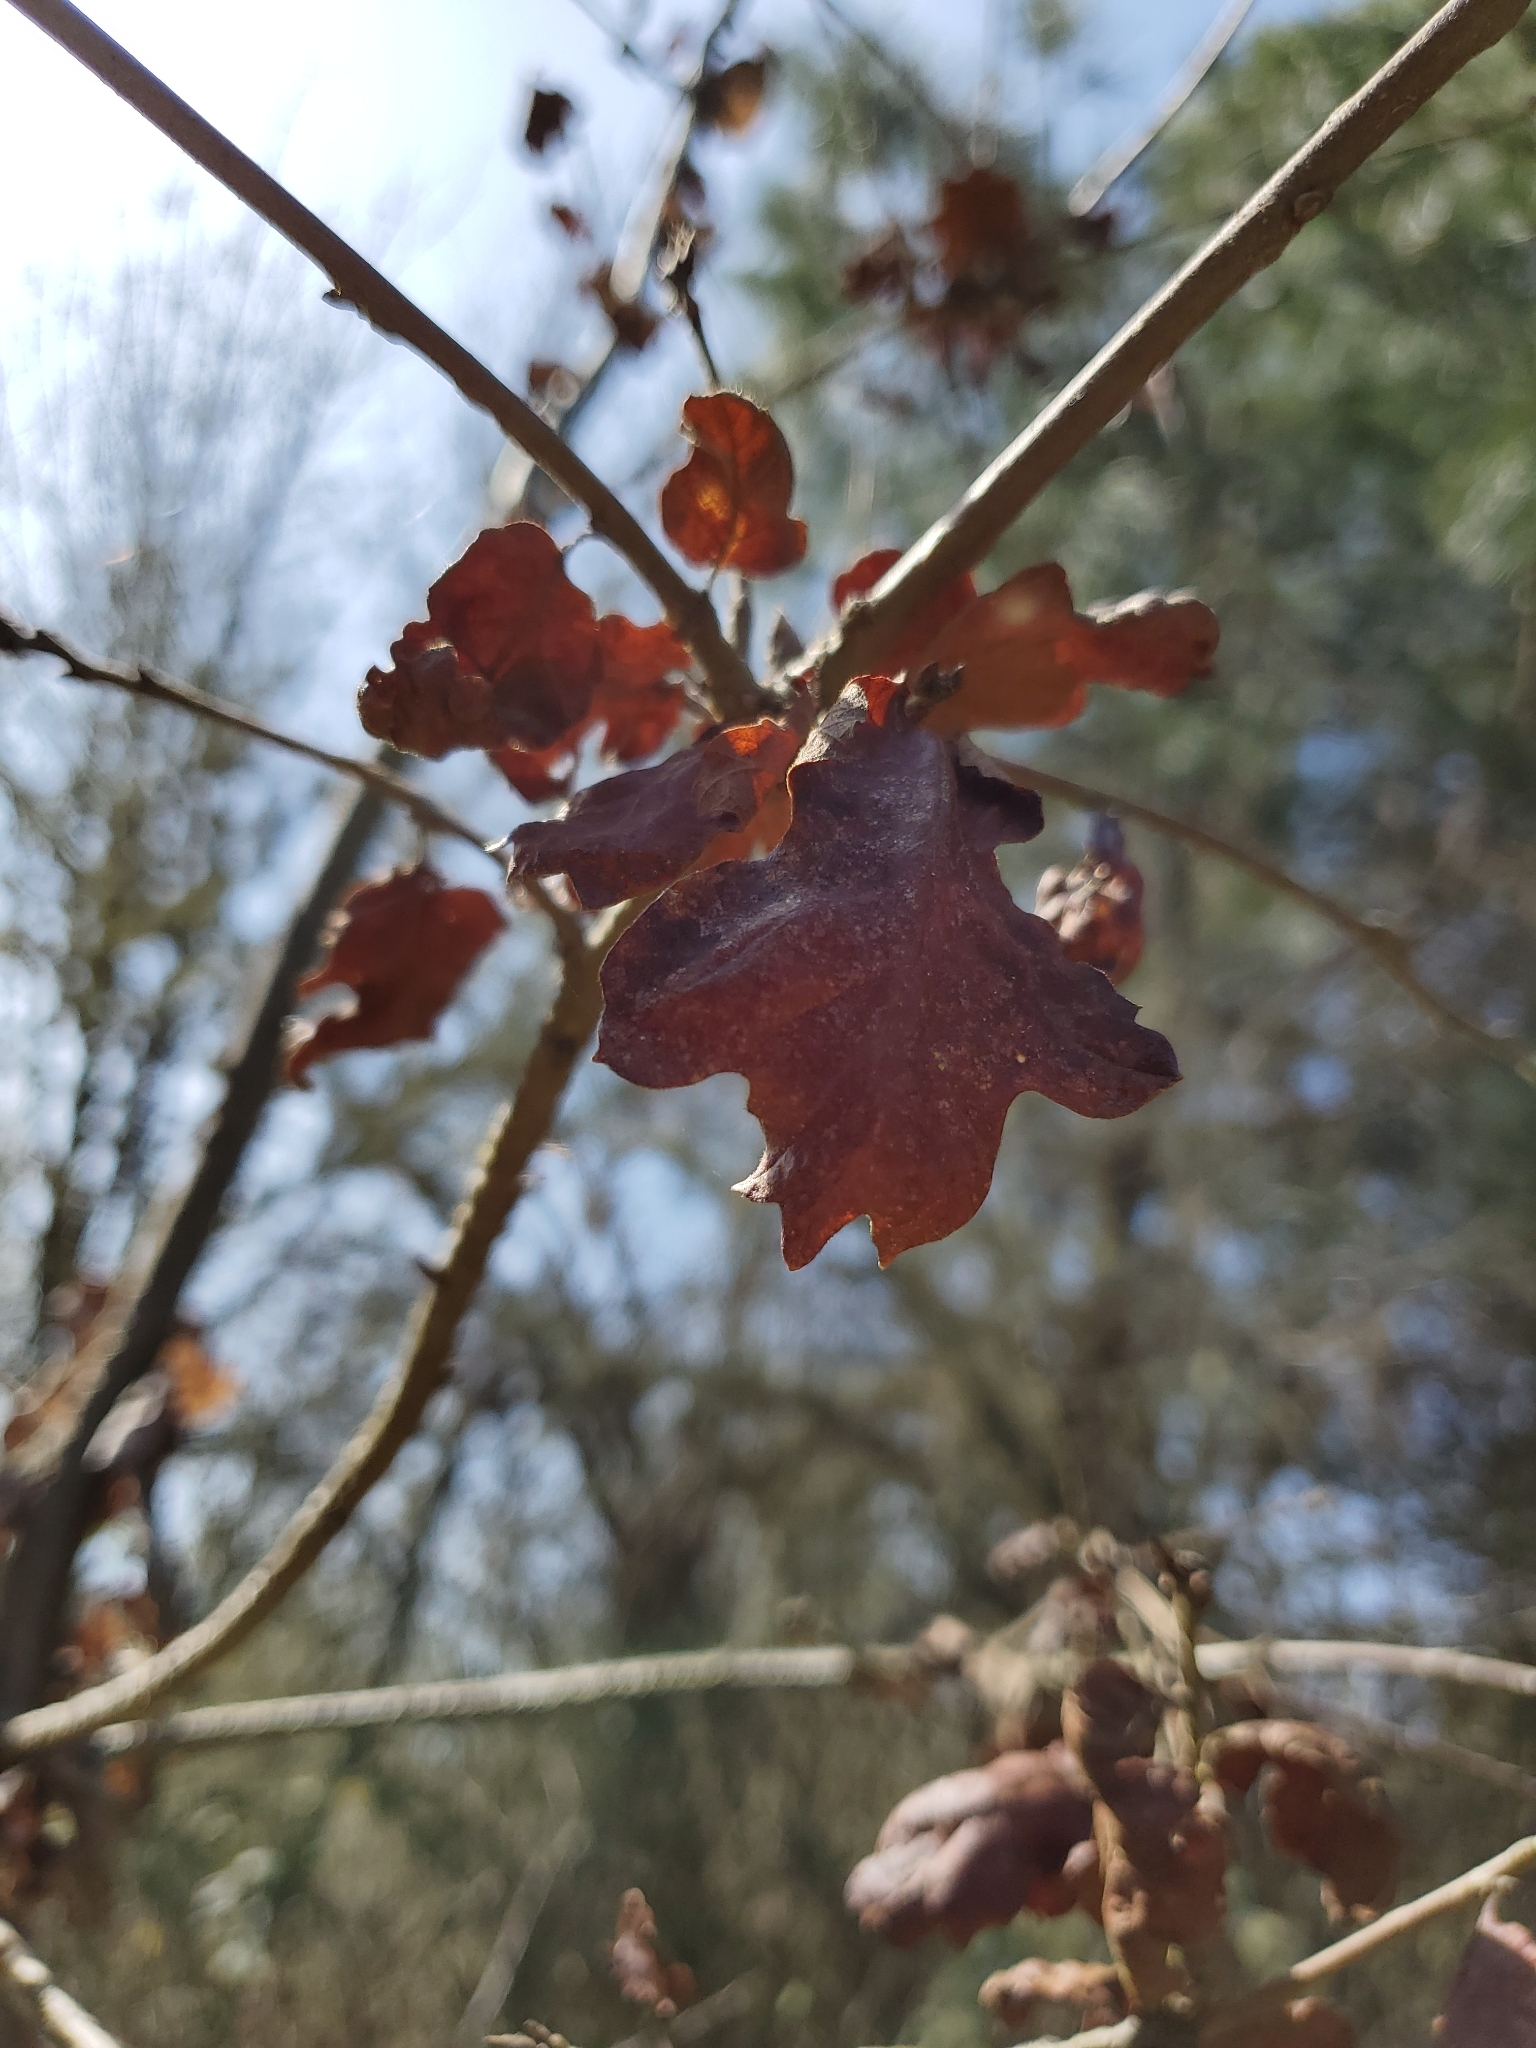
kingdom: Plantae
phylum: Tracheophyta
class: Magnoliopsida
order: Fagales
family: Fagaceae
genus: Quercus
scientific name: Quercus garryana
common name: Garry oak
